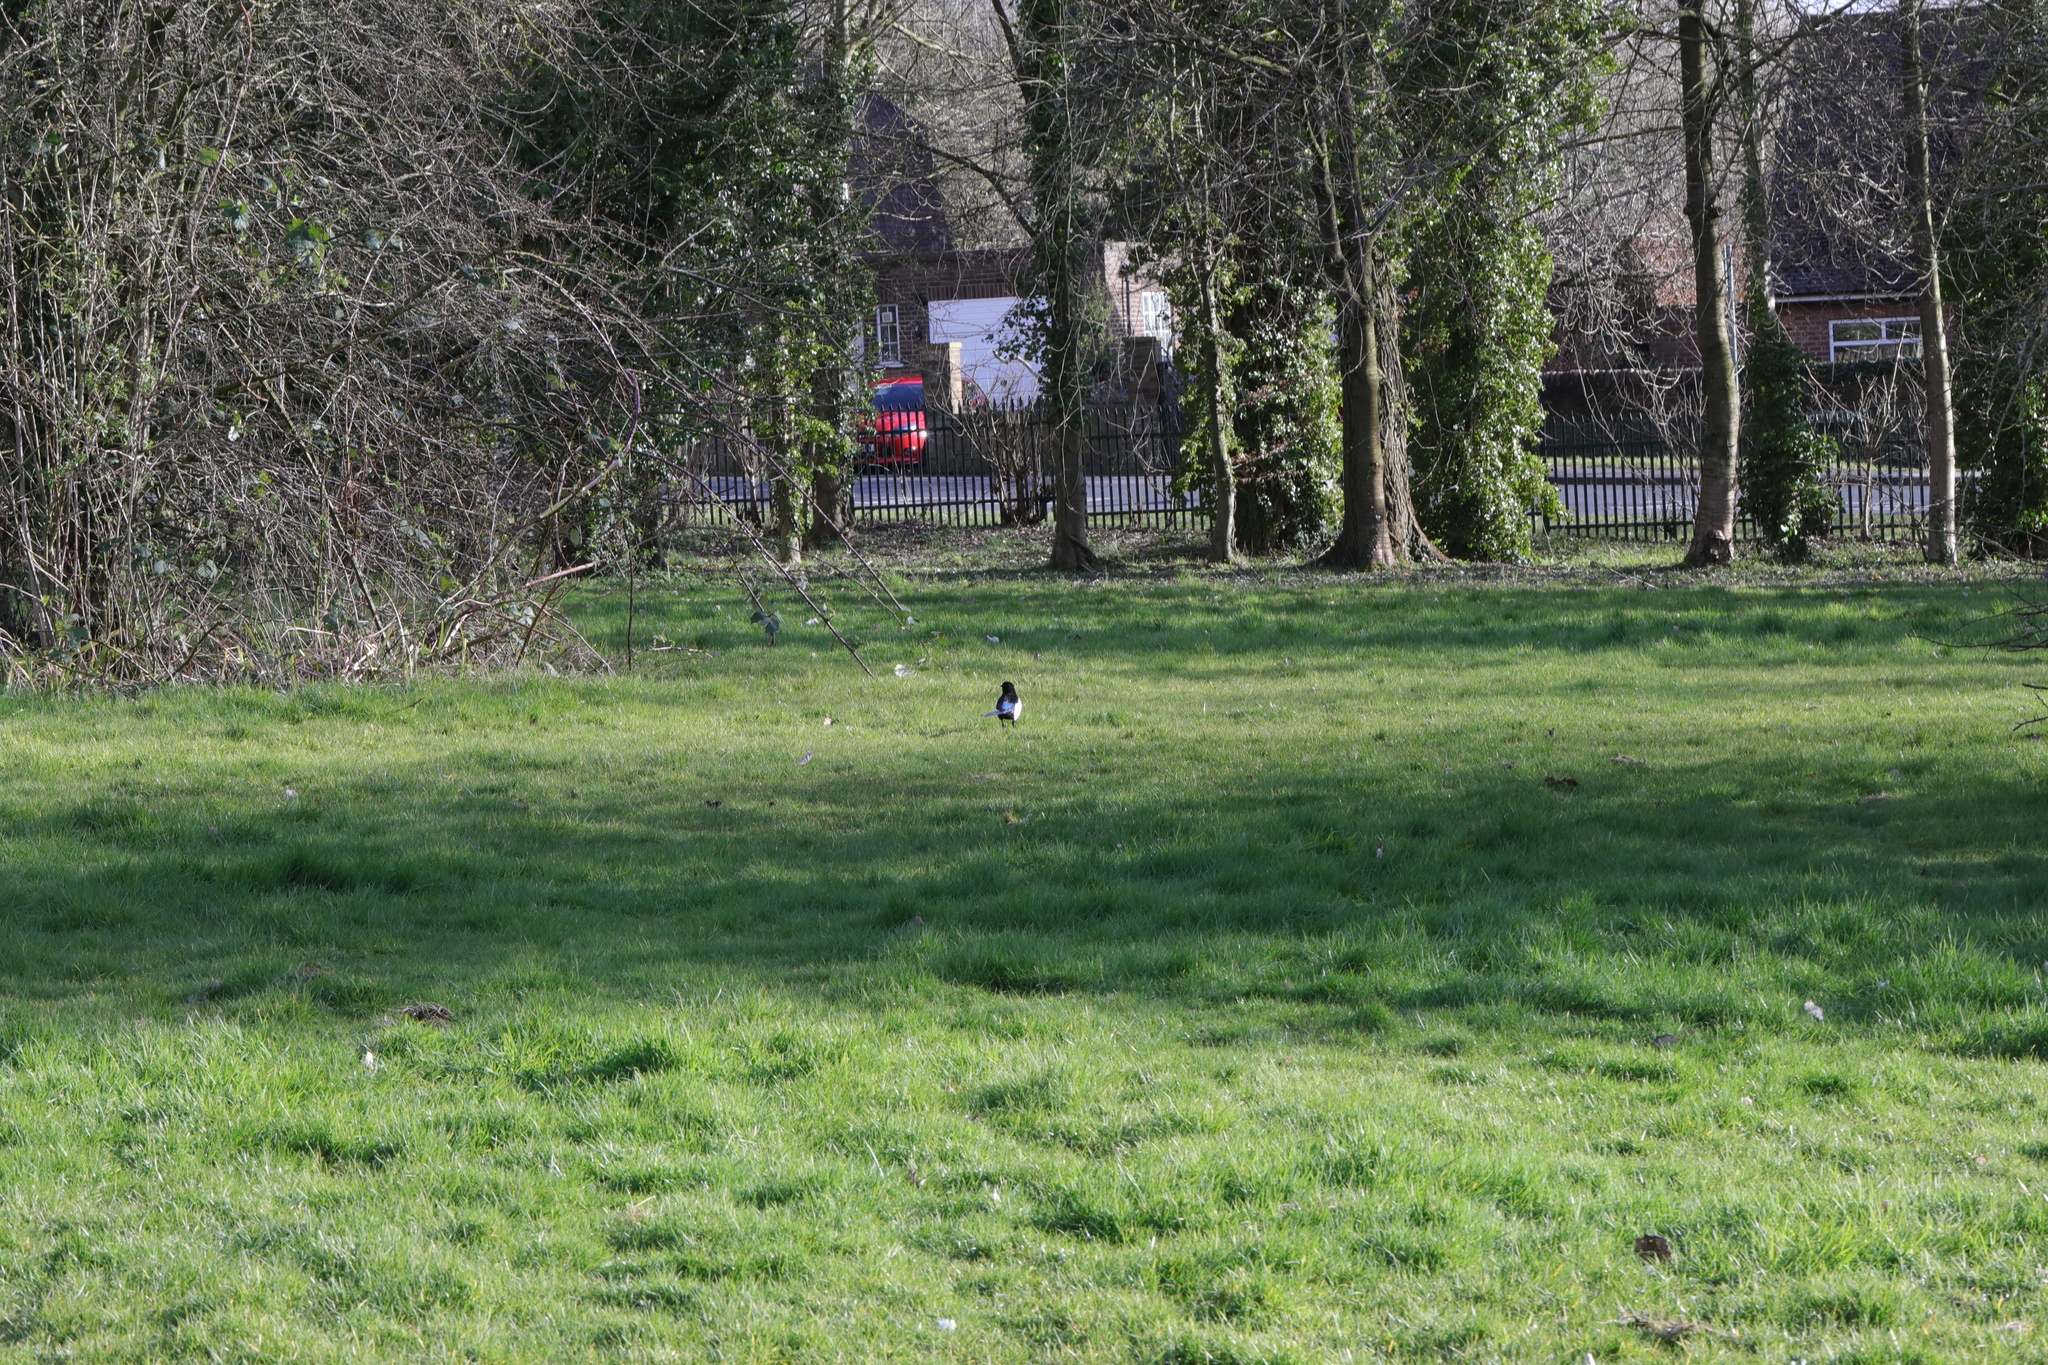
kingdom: Animalia
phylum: Chordata
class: Aves
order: Passeriformes
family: Corvidae
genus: Pica
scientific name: Pica pica
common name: Eurasian magpie
